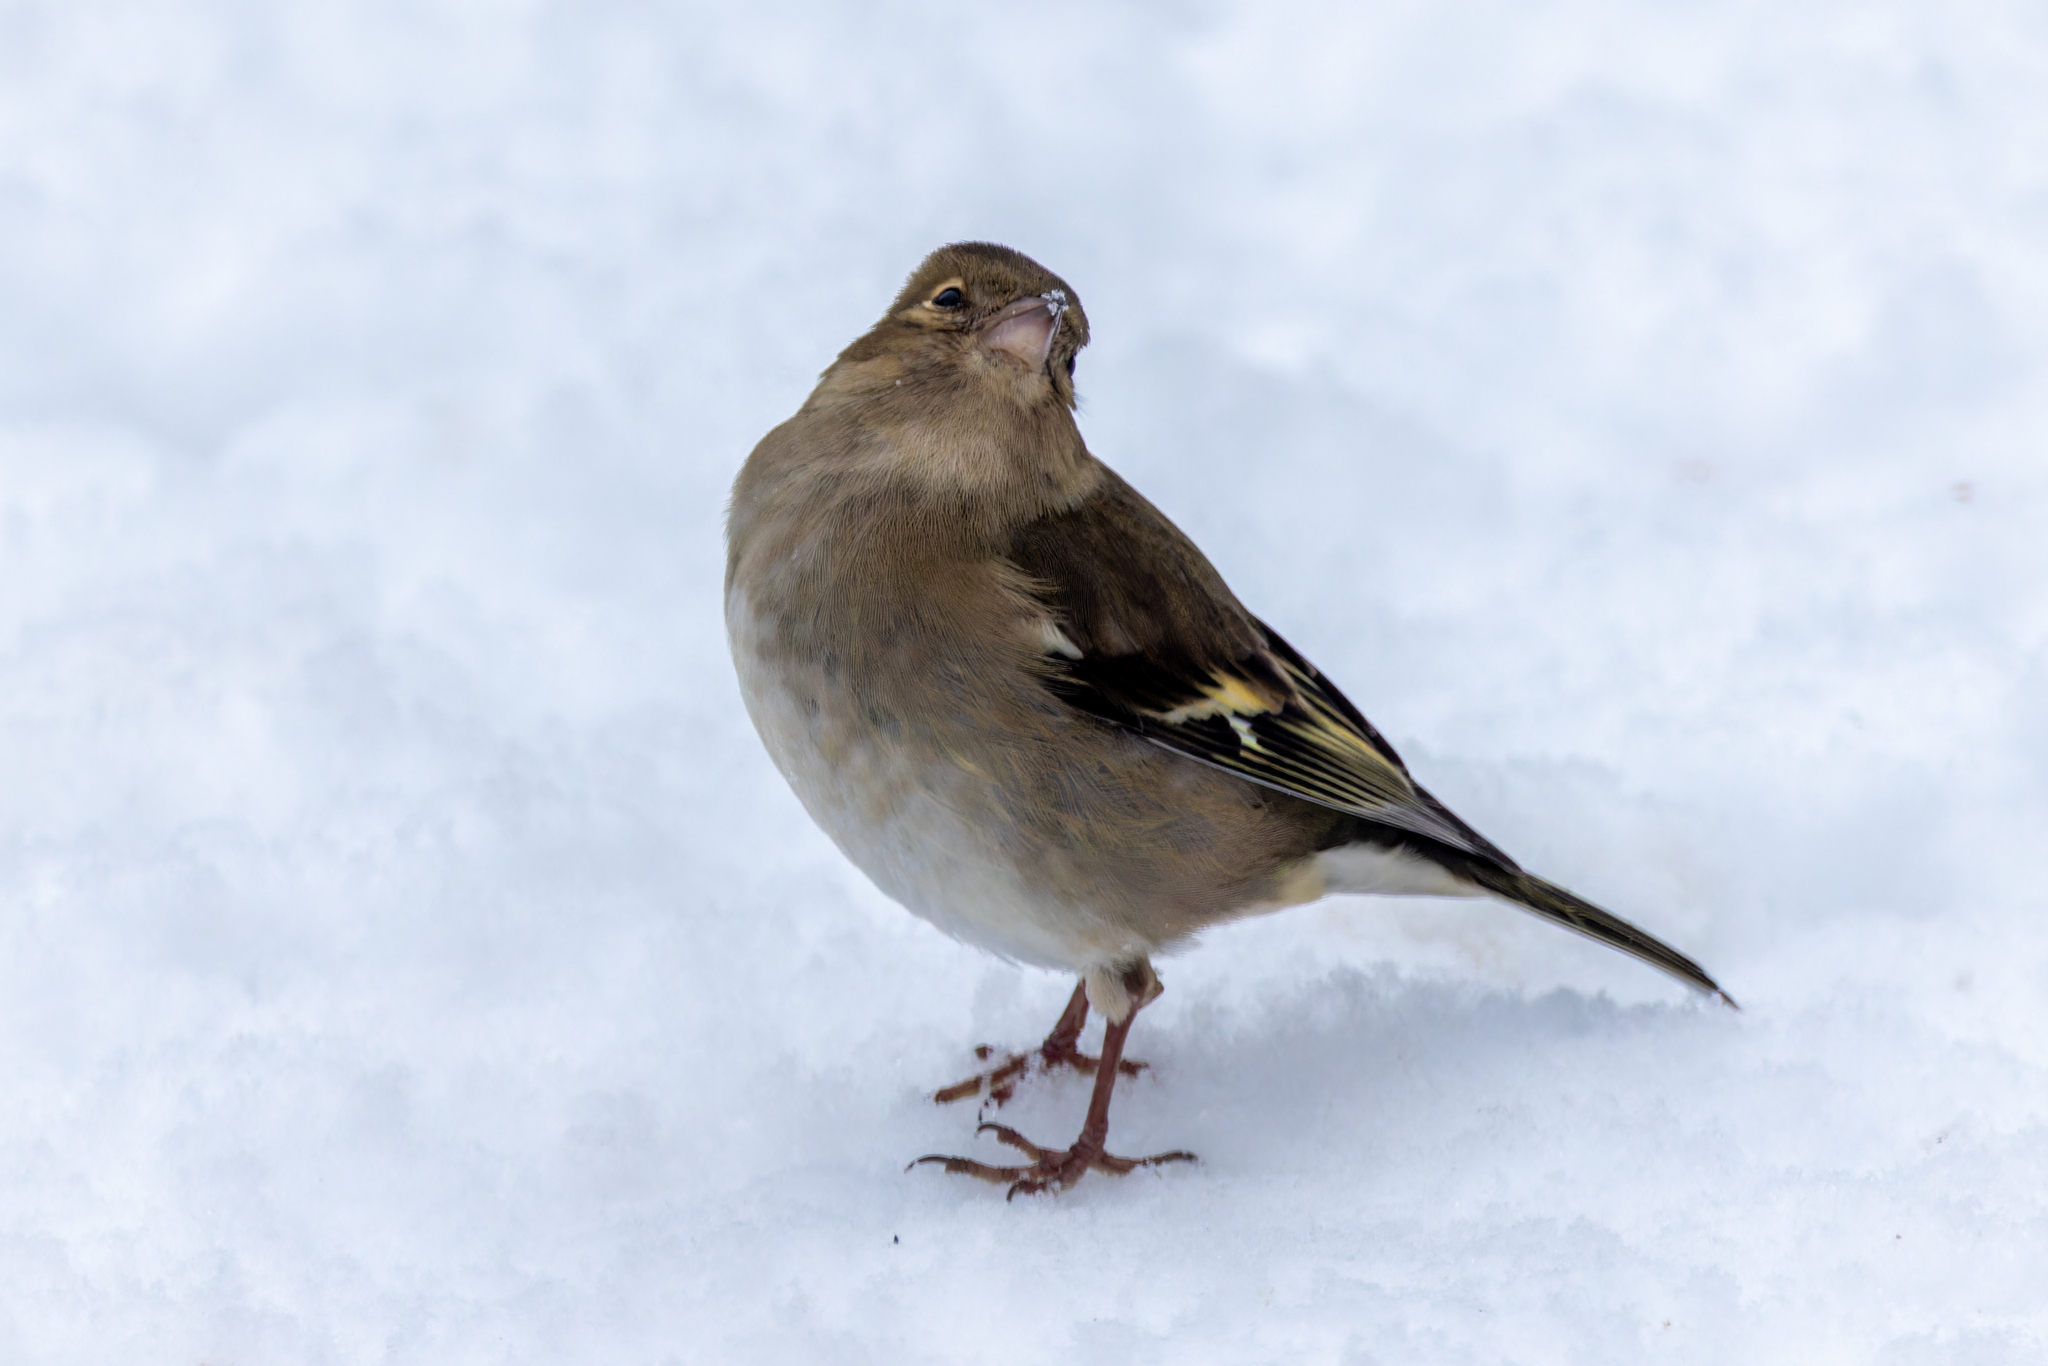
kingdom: Animalia
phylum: Chordata
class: Aves
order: Passeriformes
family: Fringillidae
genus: Fringilla
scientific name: Fringilla coelebs
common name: Common chaffinch
